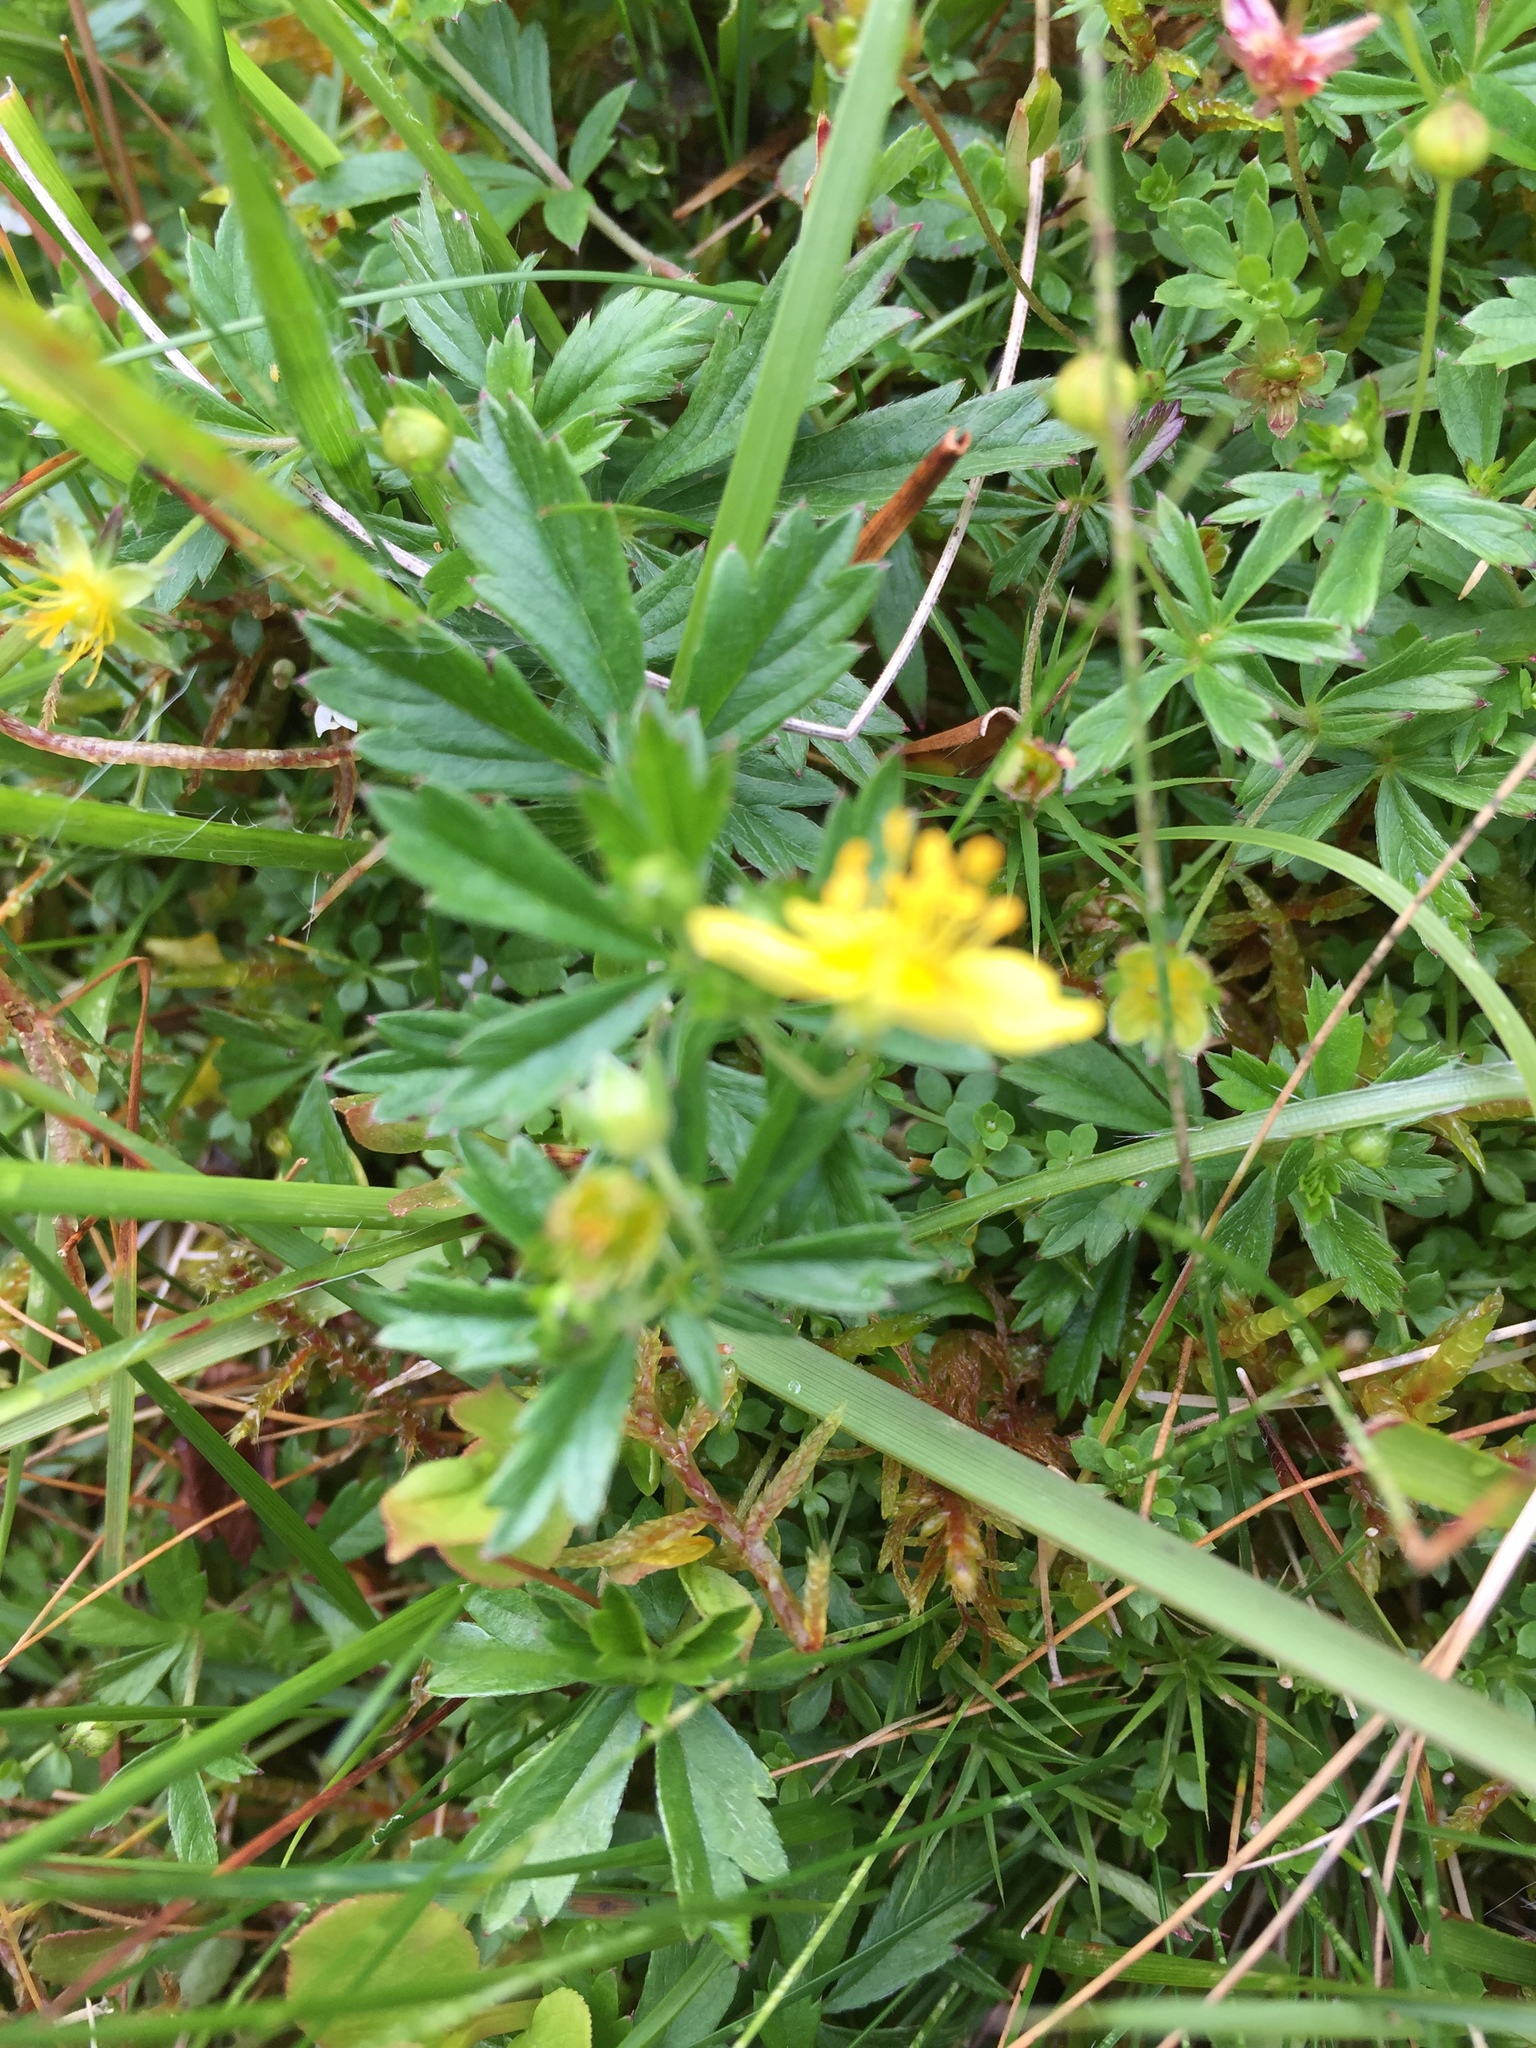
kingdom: Plantae
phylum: Tracheophyta
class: Magnoliopsida
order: Rosales
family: Rosaceae
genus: Potentilla
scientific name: Potentilla erecta
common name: Tormentil
